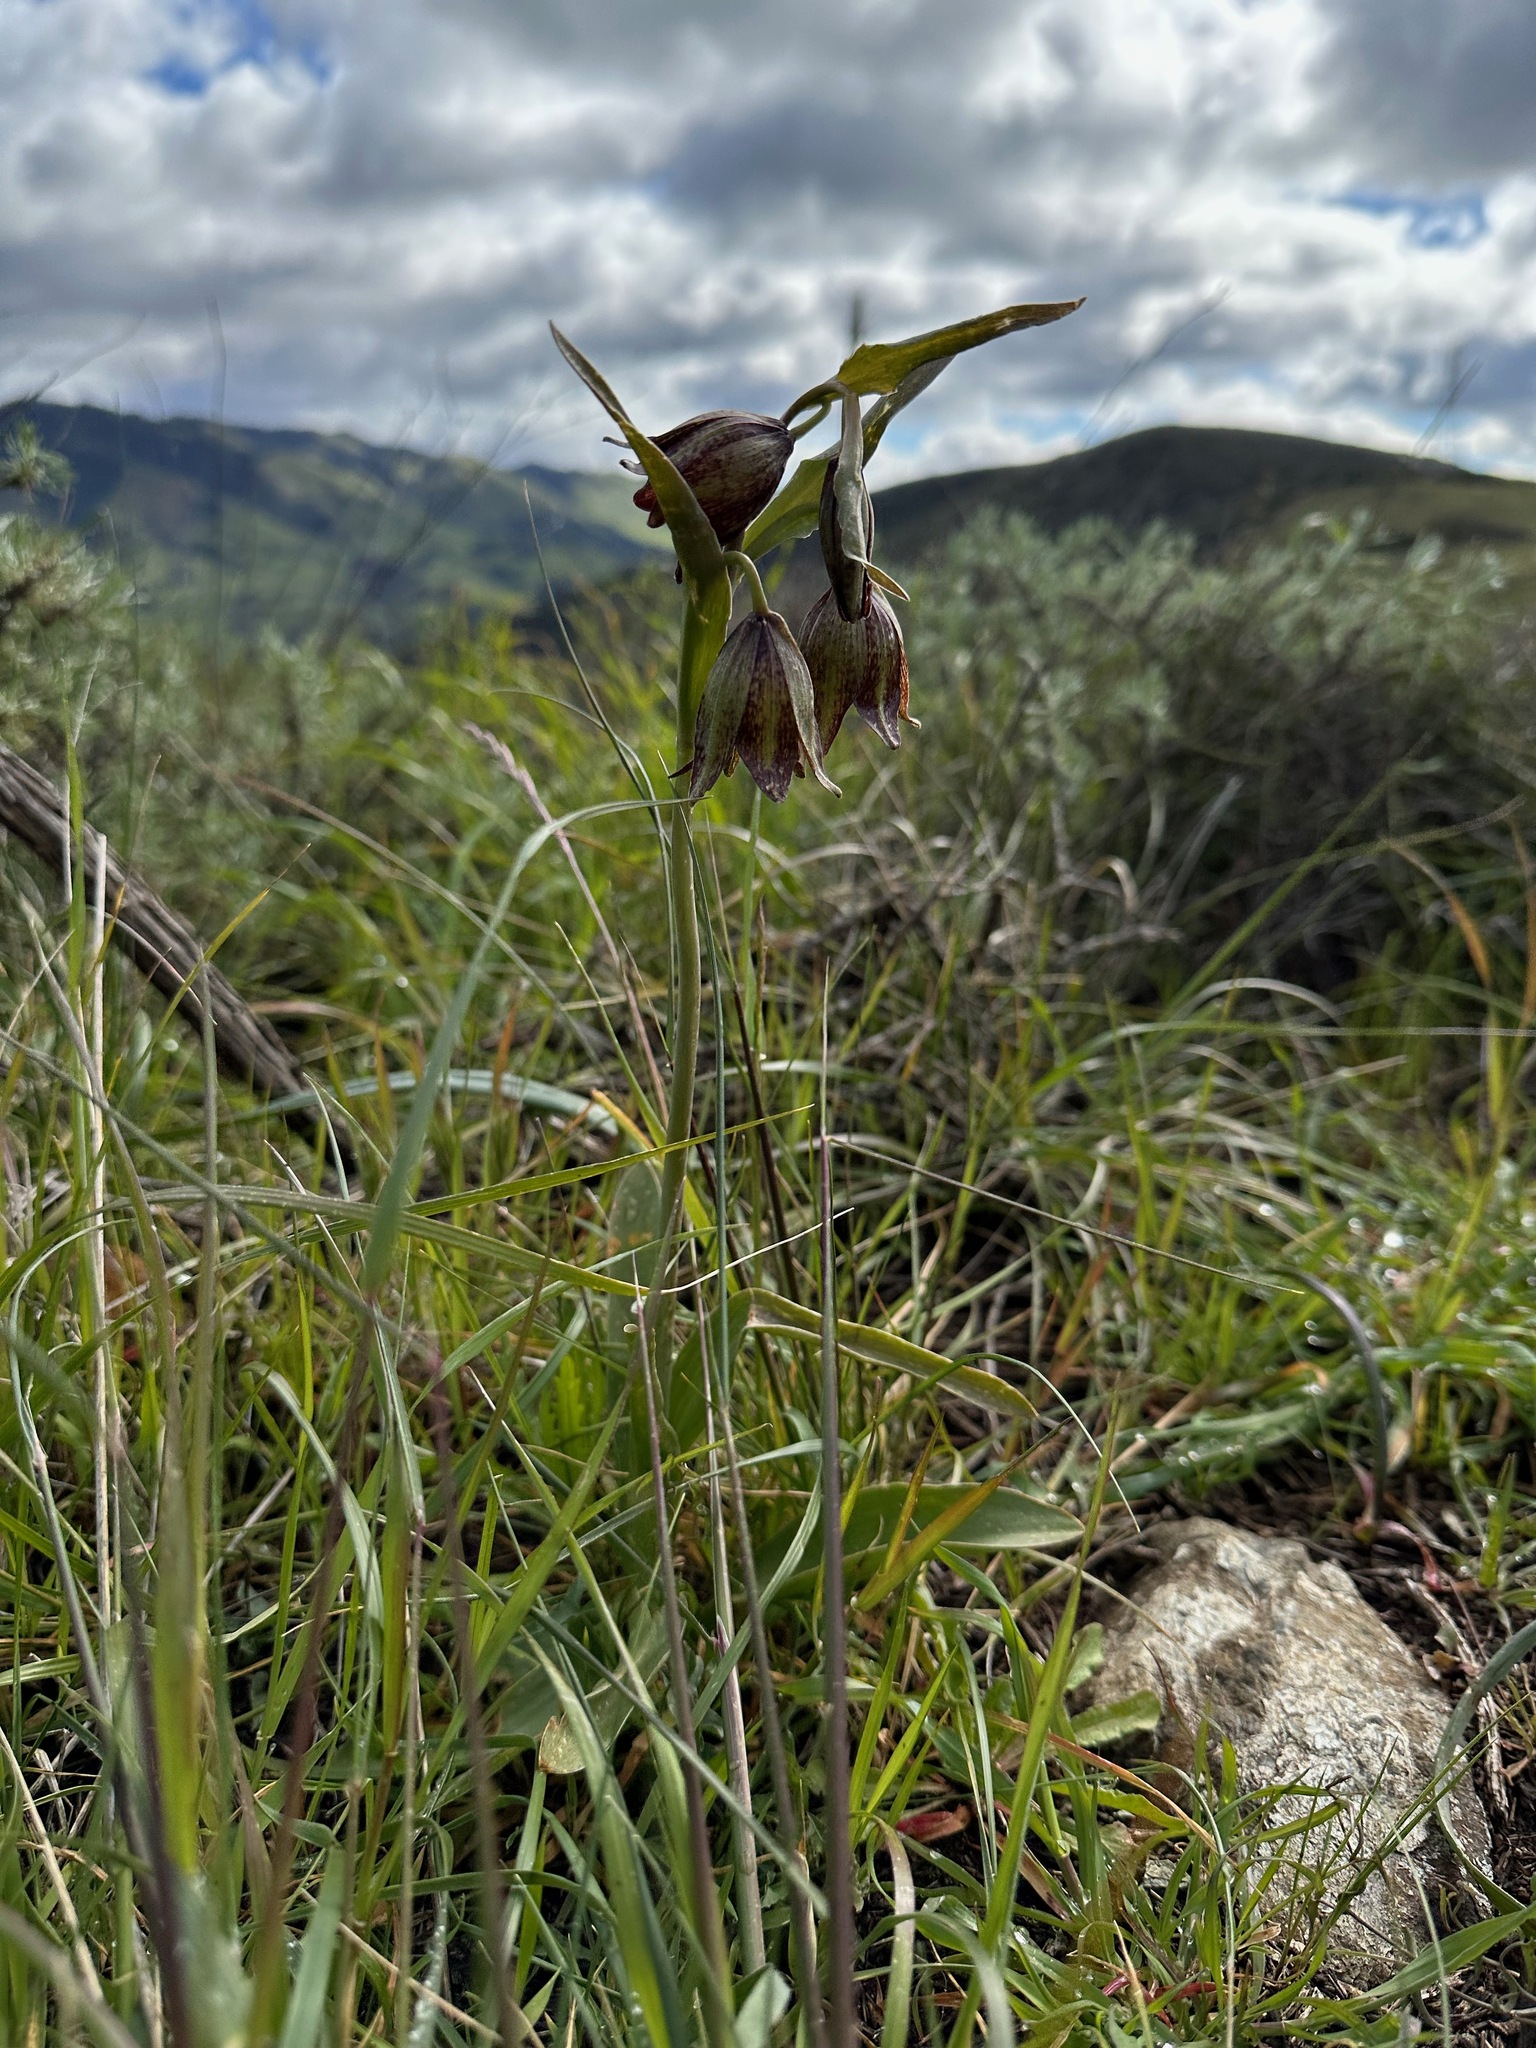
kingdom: Plantae
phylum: Tracheophyta
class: Liliopsida
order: Liliales
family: Liliaceae
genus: Fritillaria
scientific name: Fritillaria biflora
